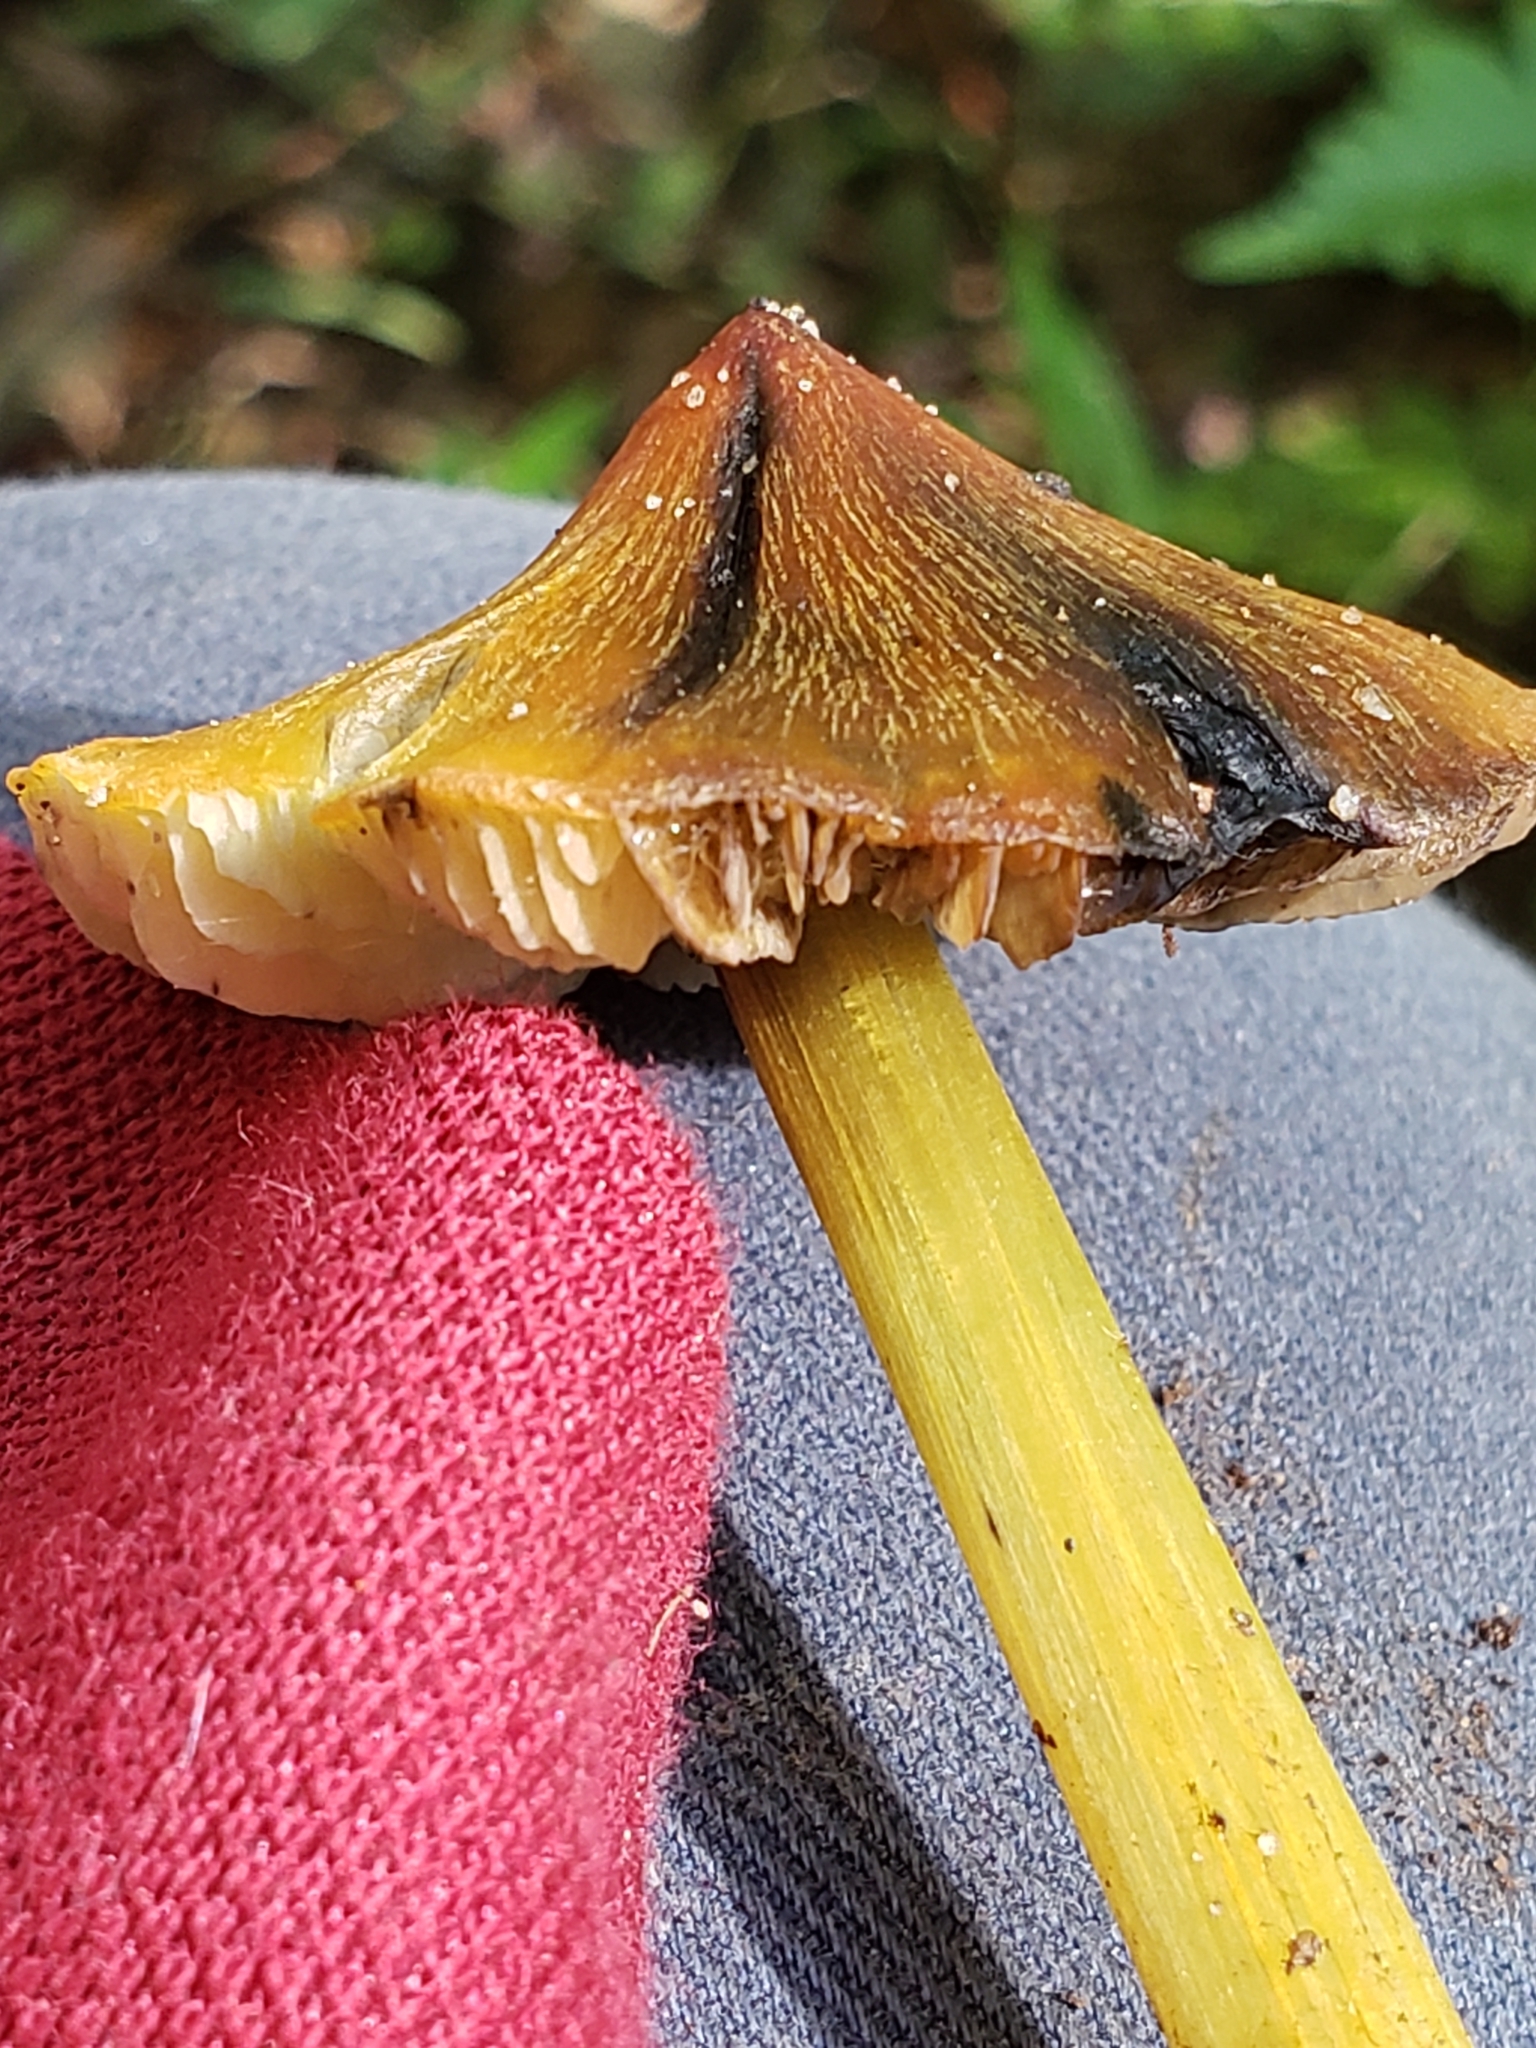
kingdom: Fungi
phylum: Basidiomycota
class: Agaricomycetes
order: Agaricales
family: Hygrophoraceae
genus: Hygrocybe
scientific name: Hygrocybe conica
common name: Blackening wax-cap
